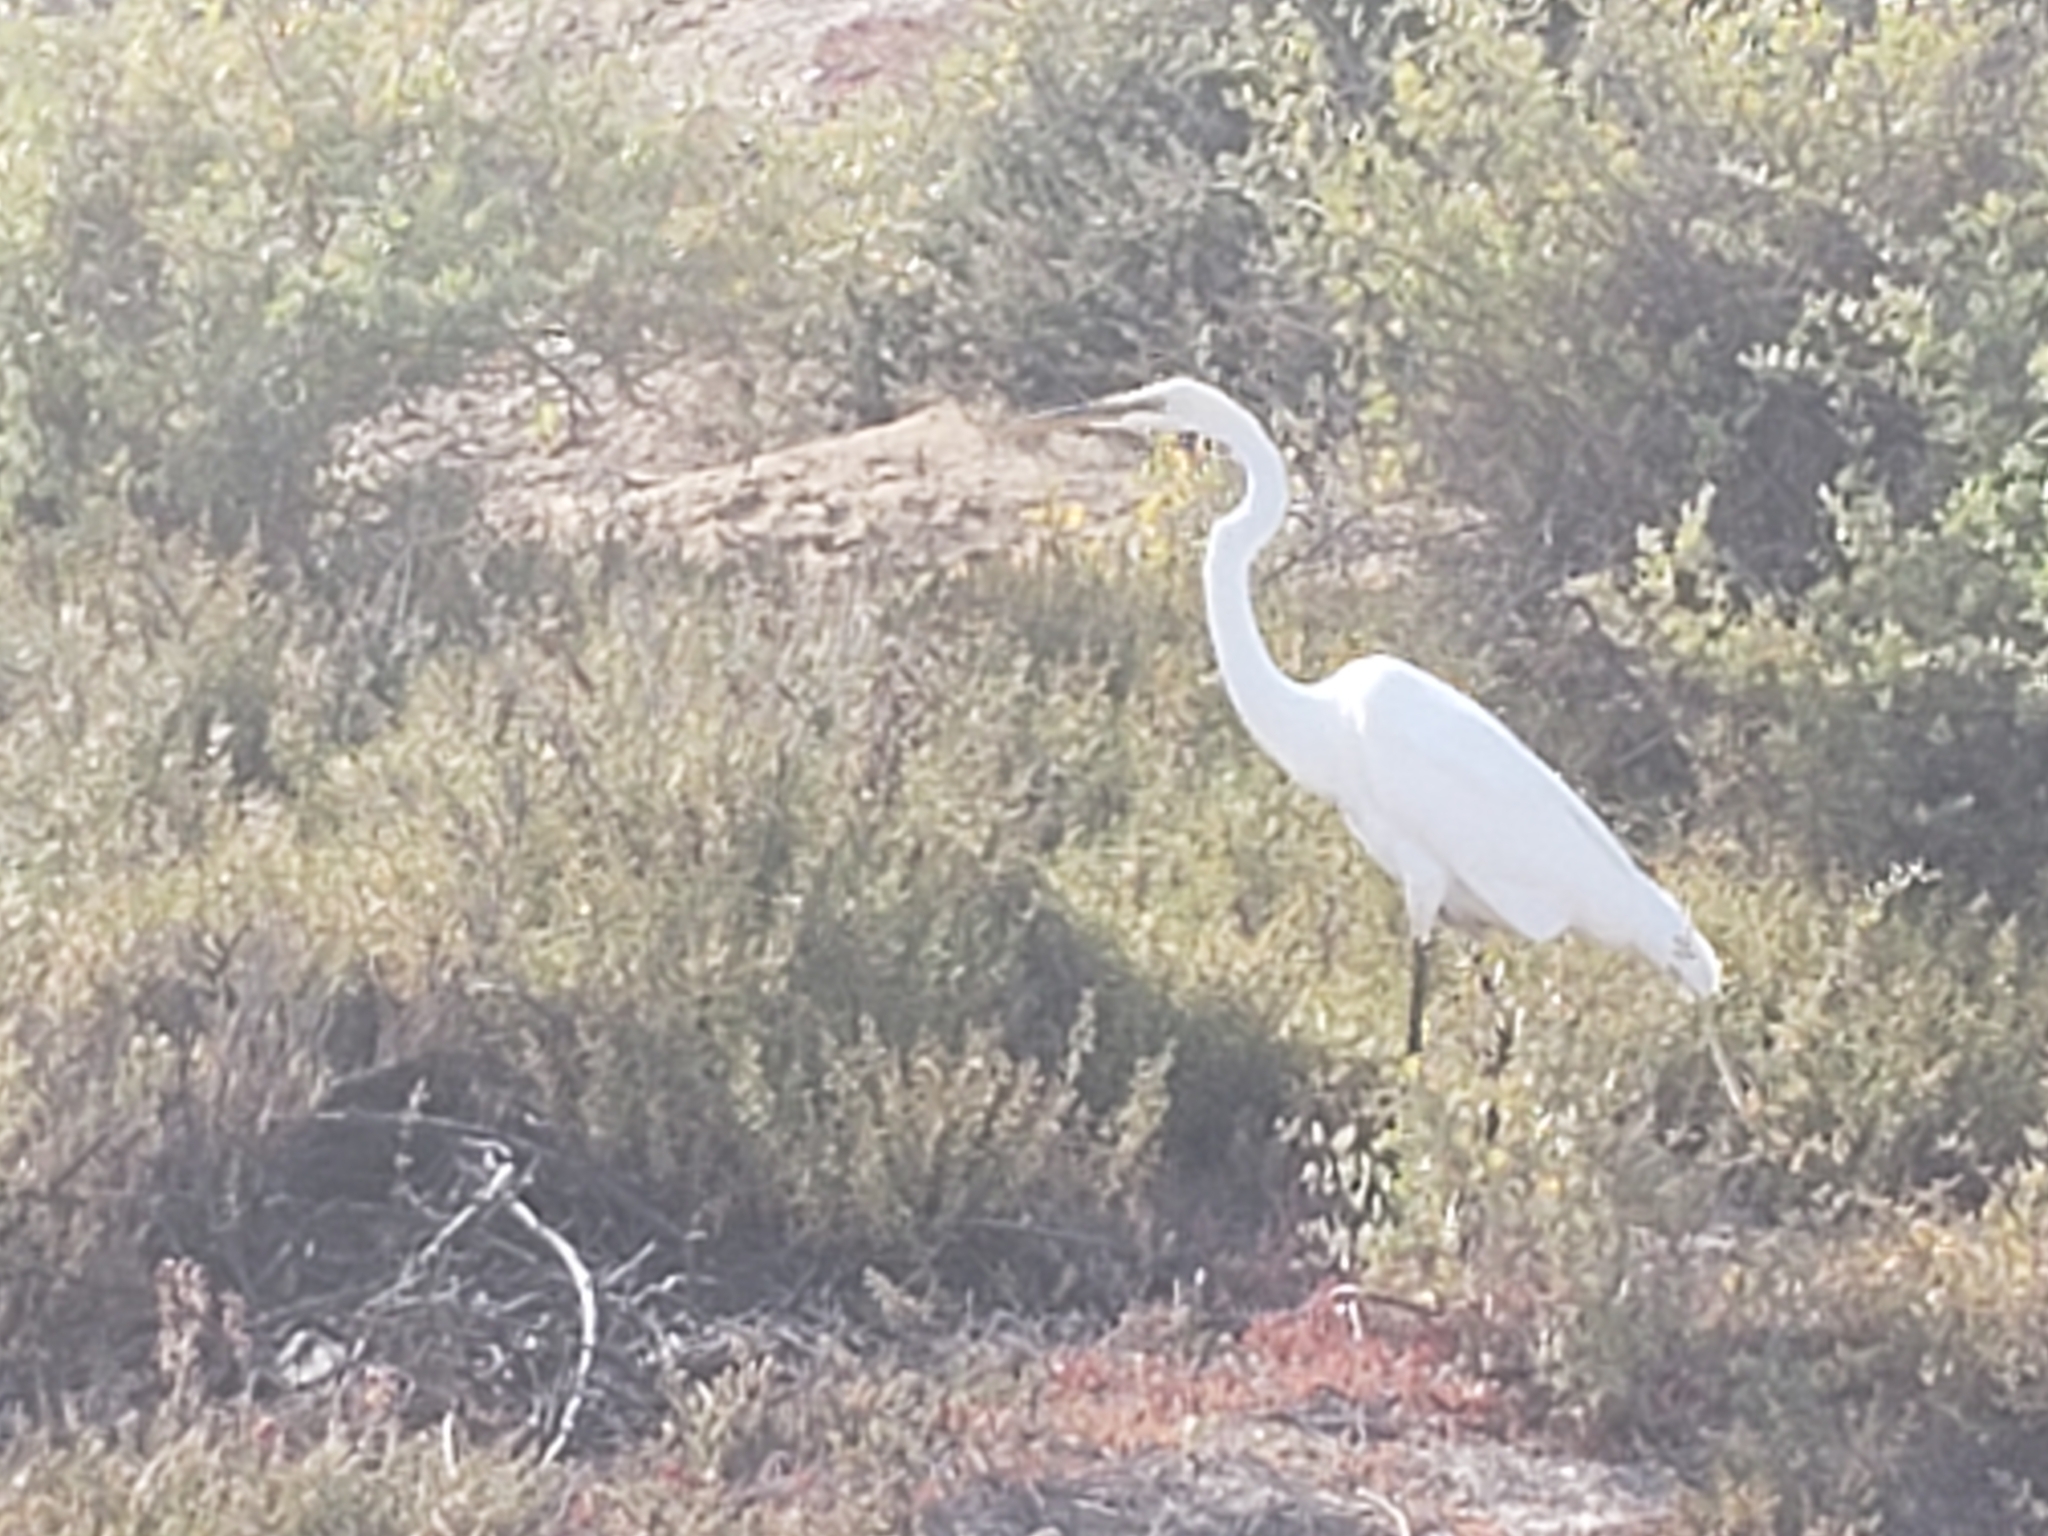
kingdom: Animalia
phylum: Chordata
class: Aves
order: Pelecaniformes
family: Ardeidae
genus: Ardea
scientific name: Ardea alba
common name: Great egret
